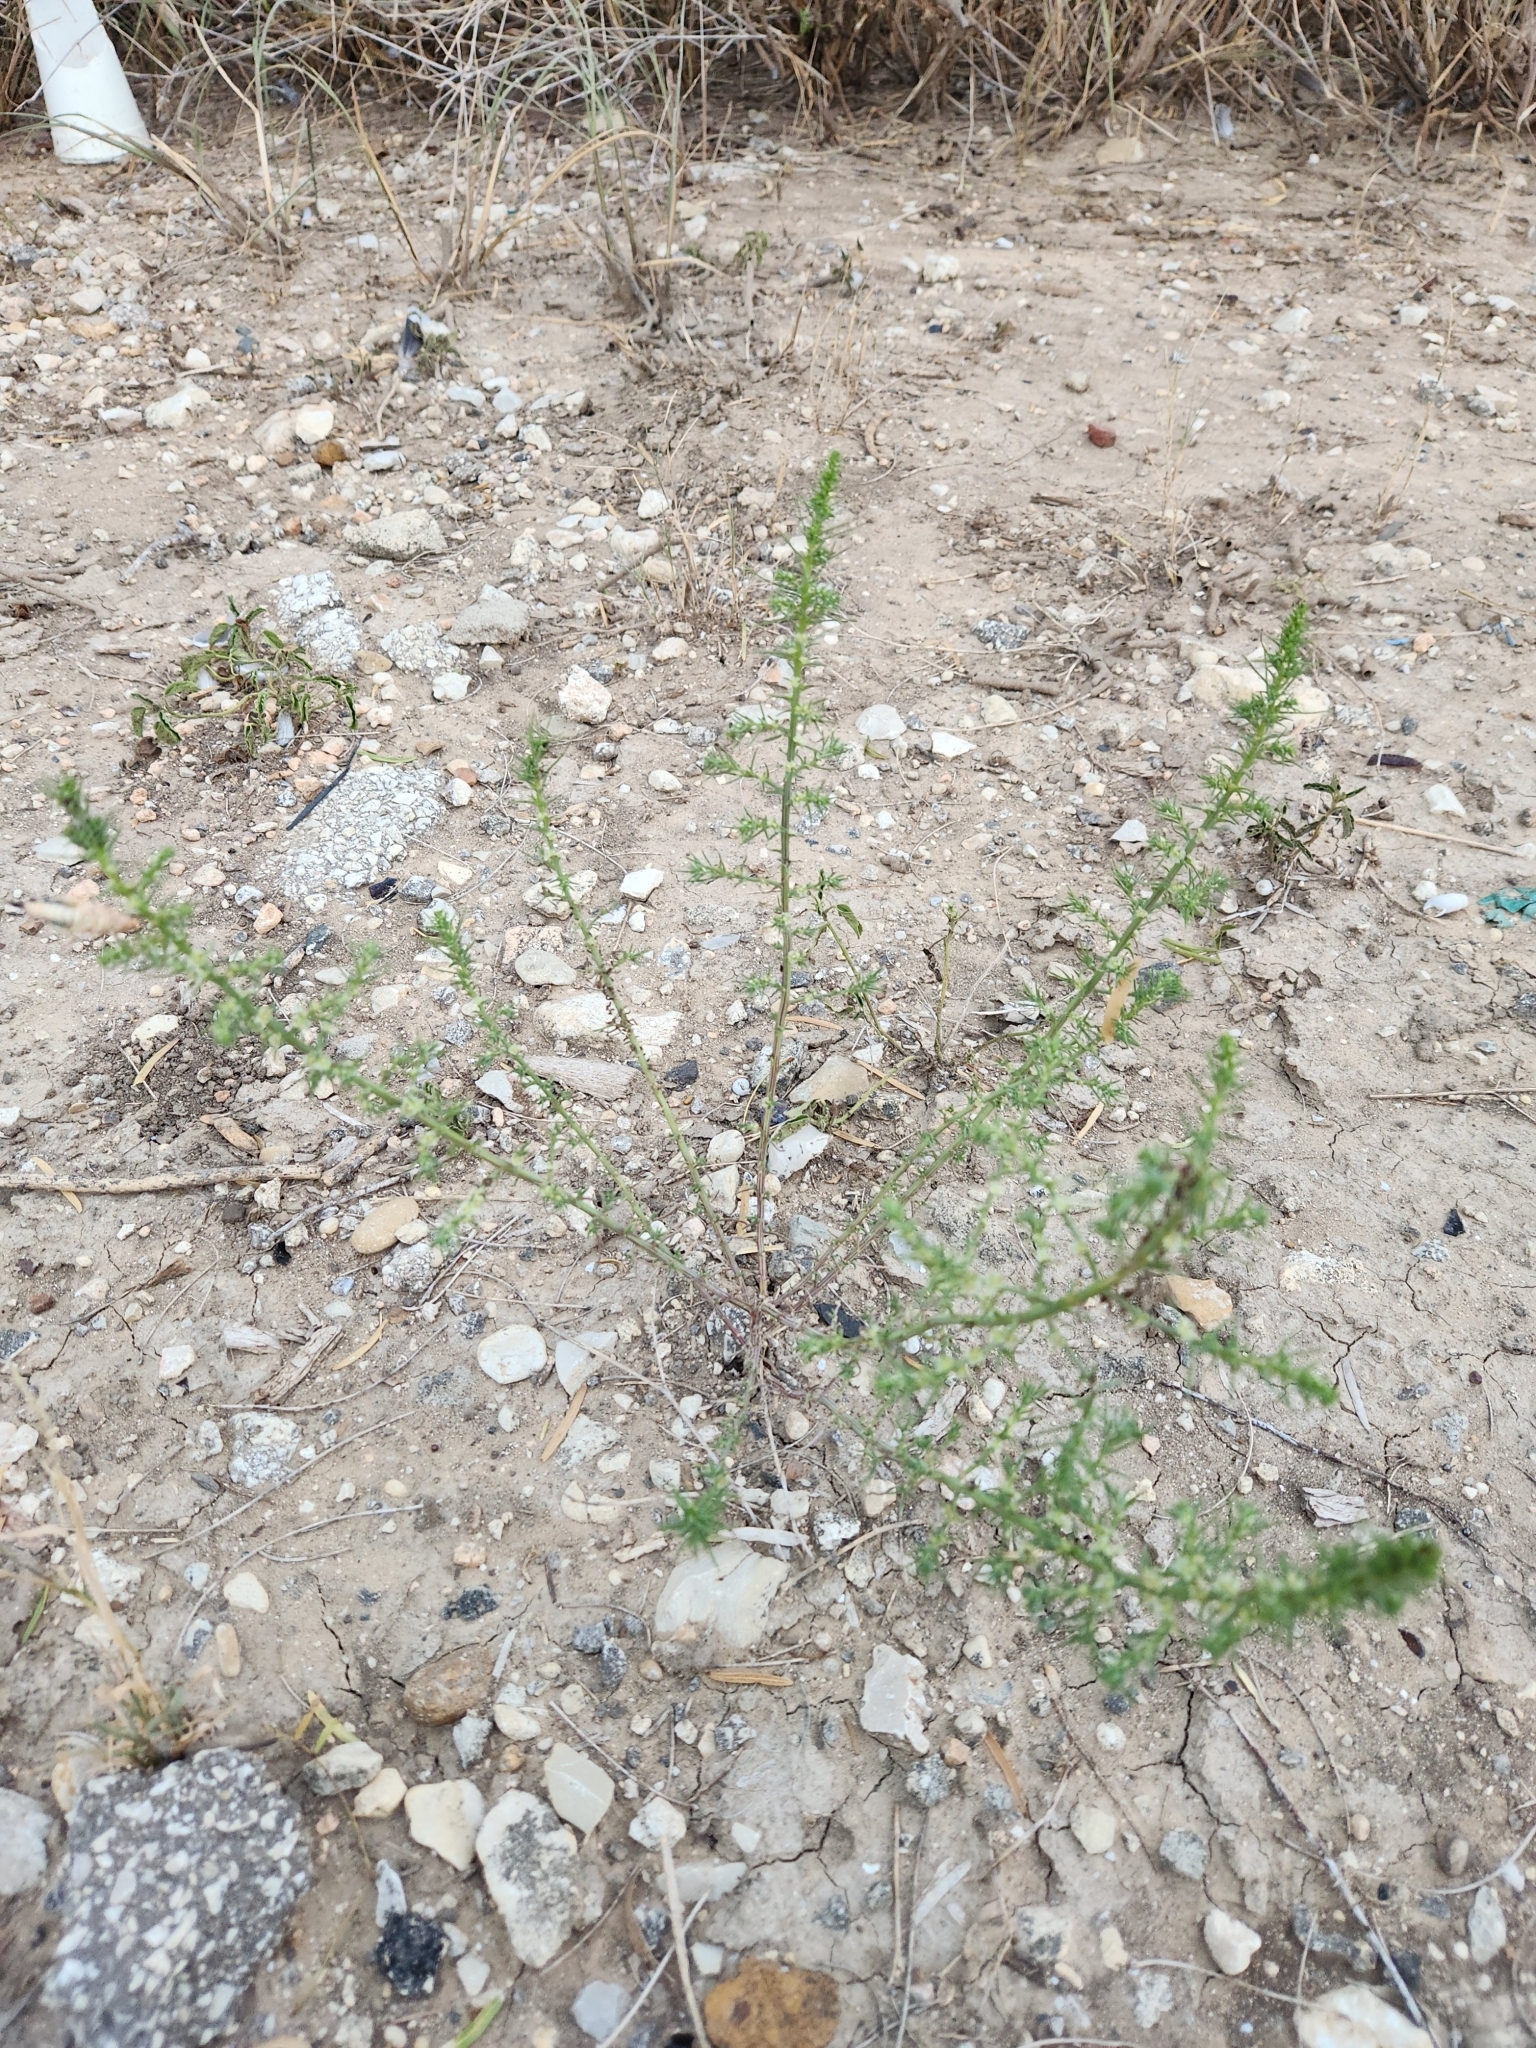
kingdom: Plantae
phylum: Tracheophyta
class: Magnoliopsida
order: Caryophyllales
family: Amaranthaceae
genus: Salsola
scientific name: Salsola tragus
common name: Prickly russian thistle
